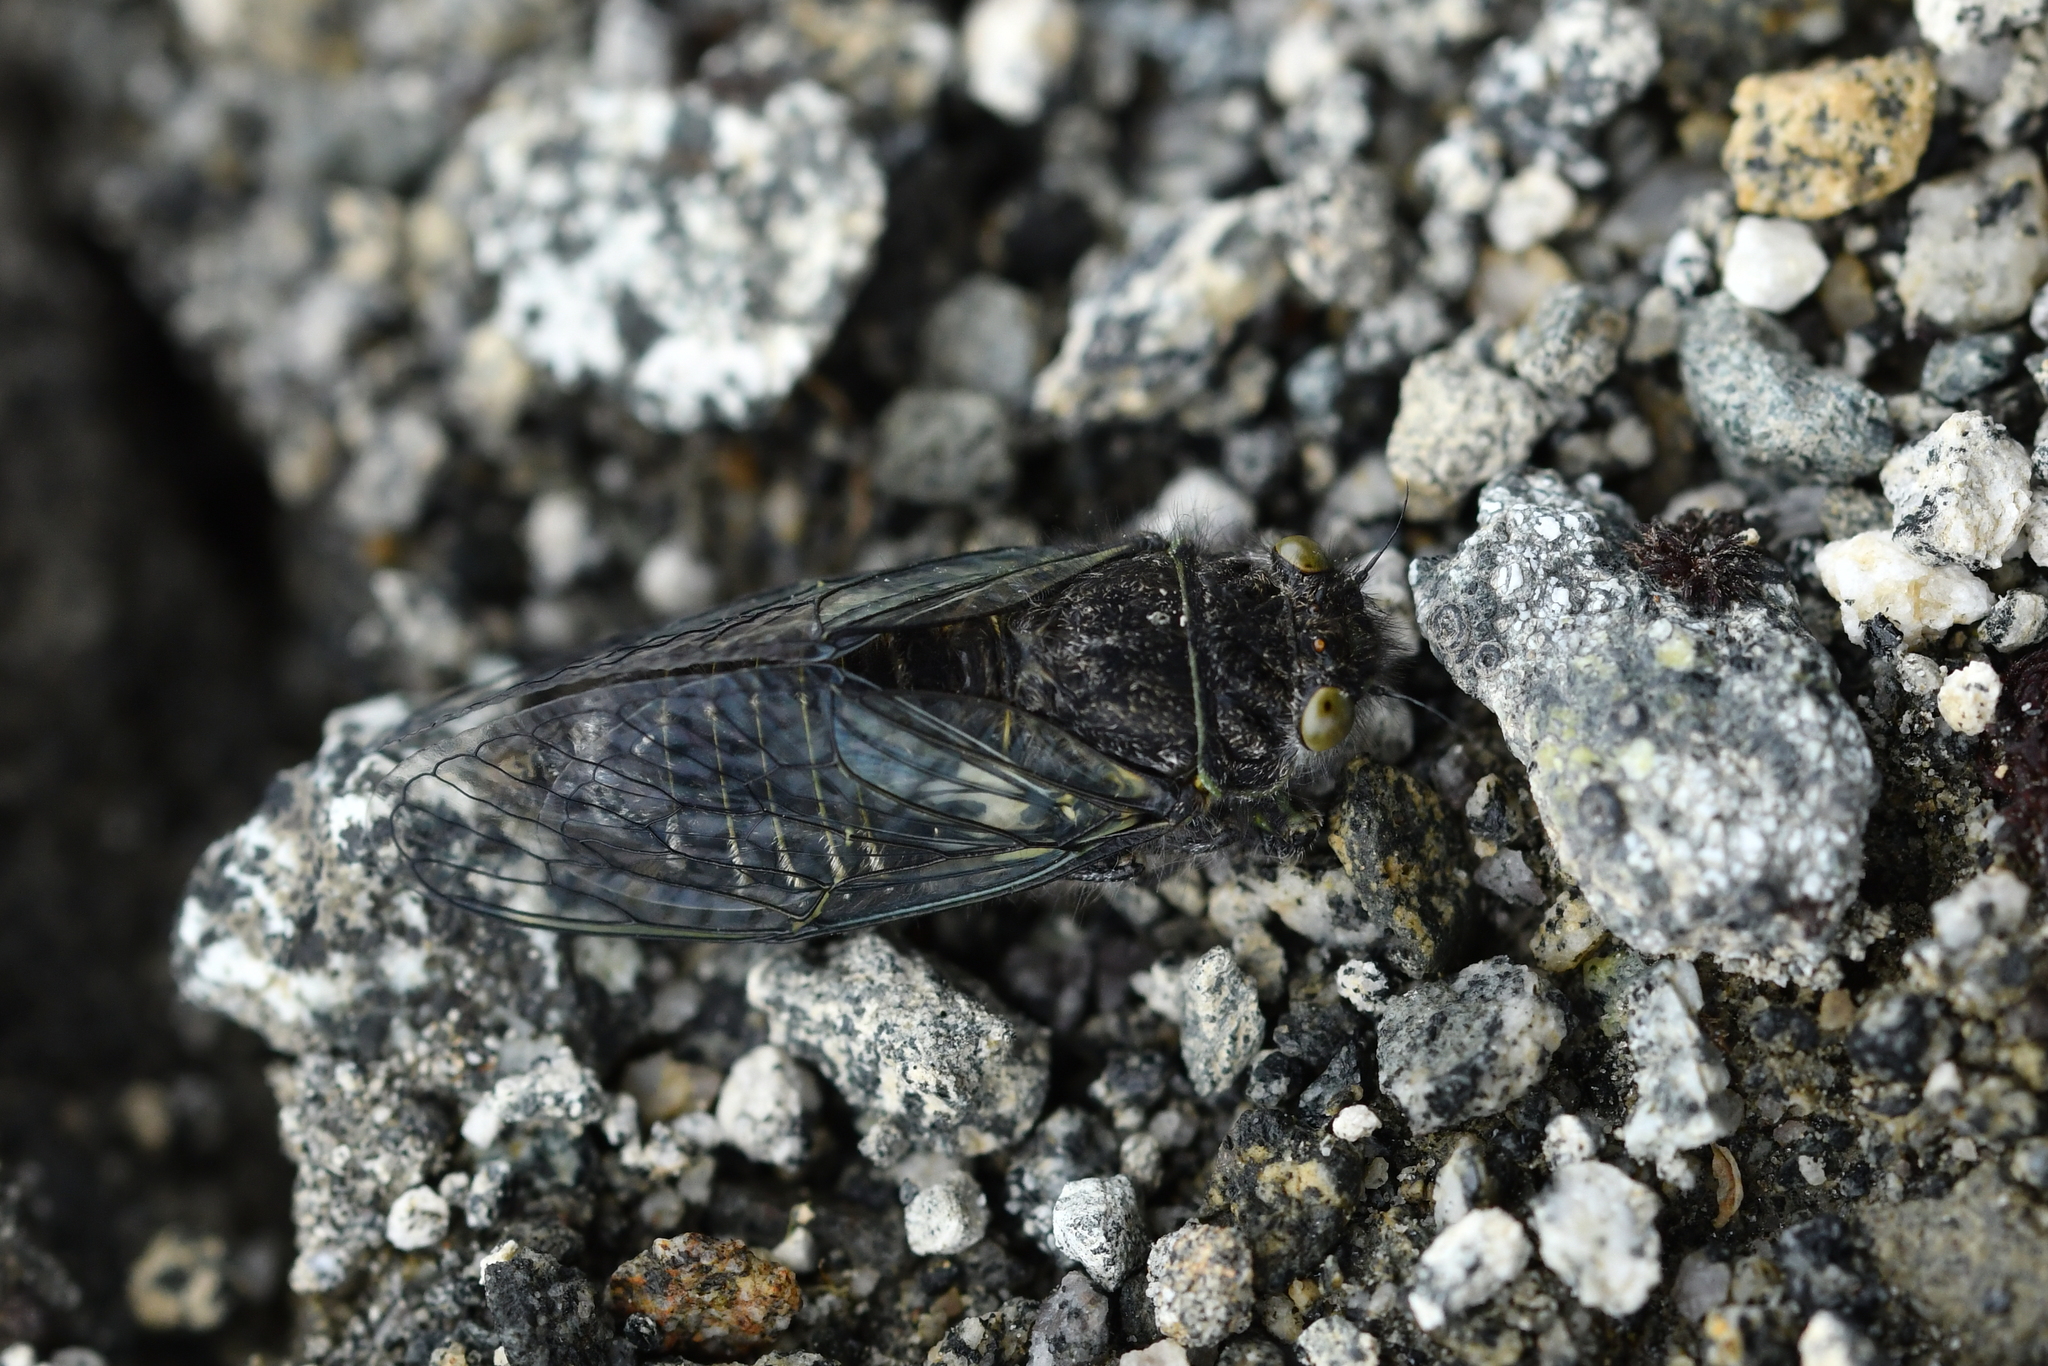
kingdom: Animalia
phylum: Arthropoda
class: Insecta
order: Hemiptera
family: Cicadidae
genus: Maoricicada
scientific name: Maoricicada oromelaena
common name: Greater alpine black cicada
